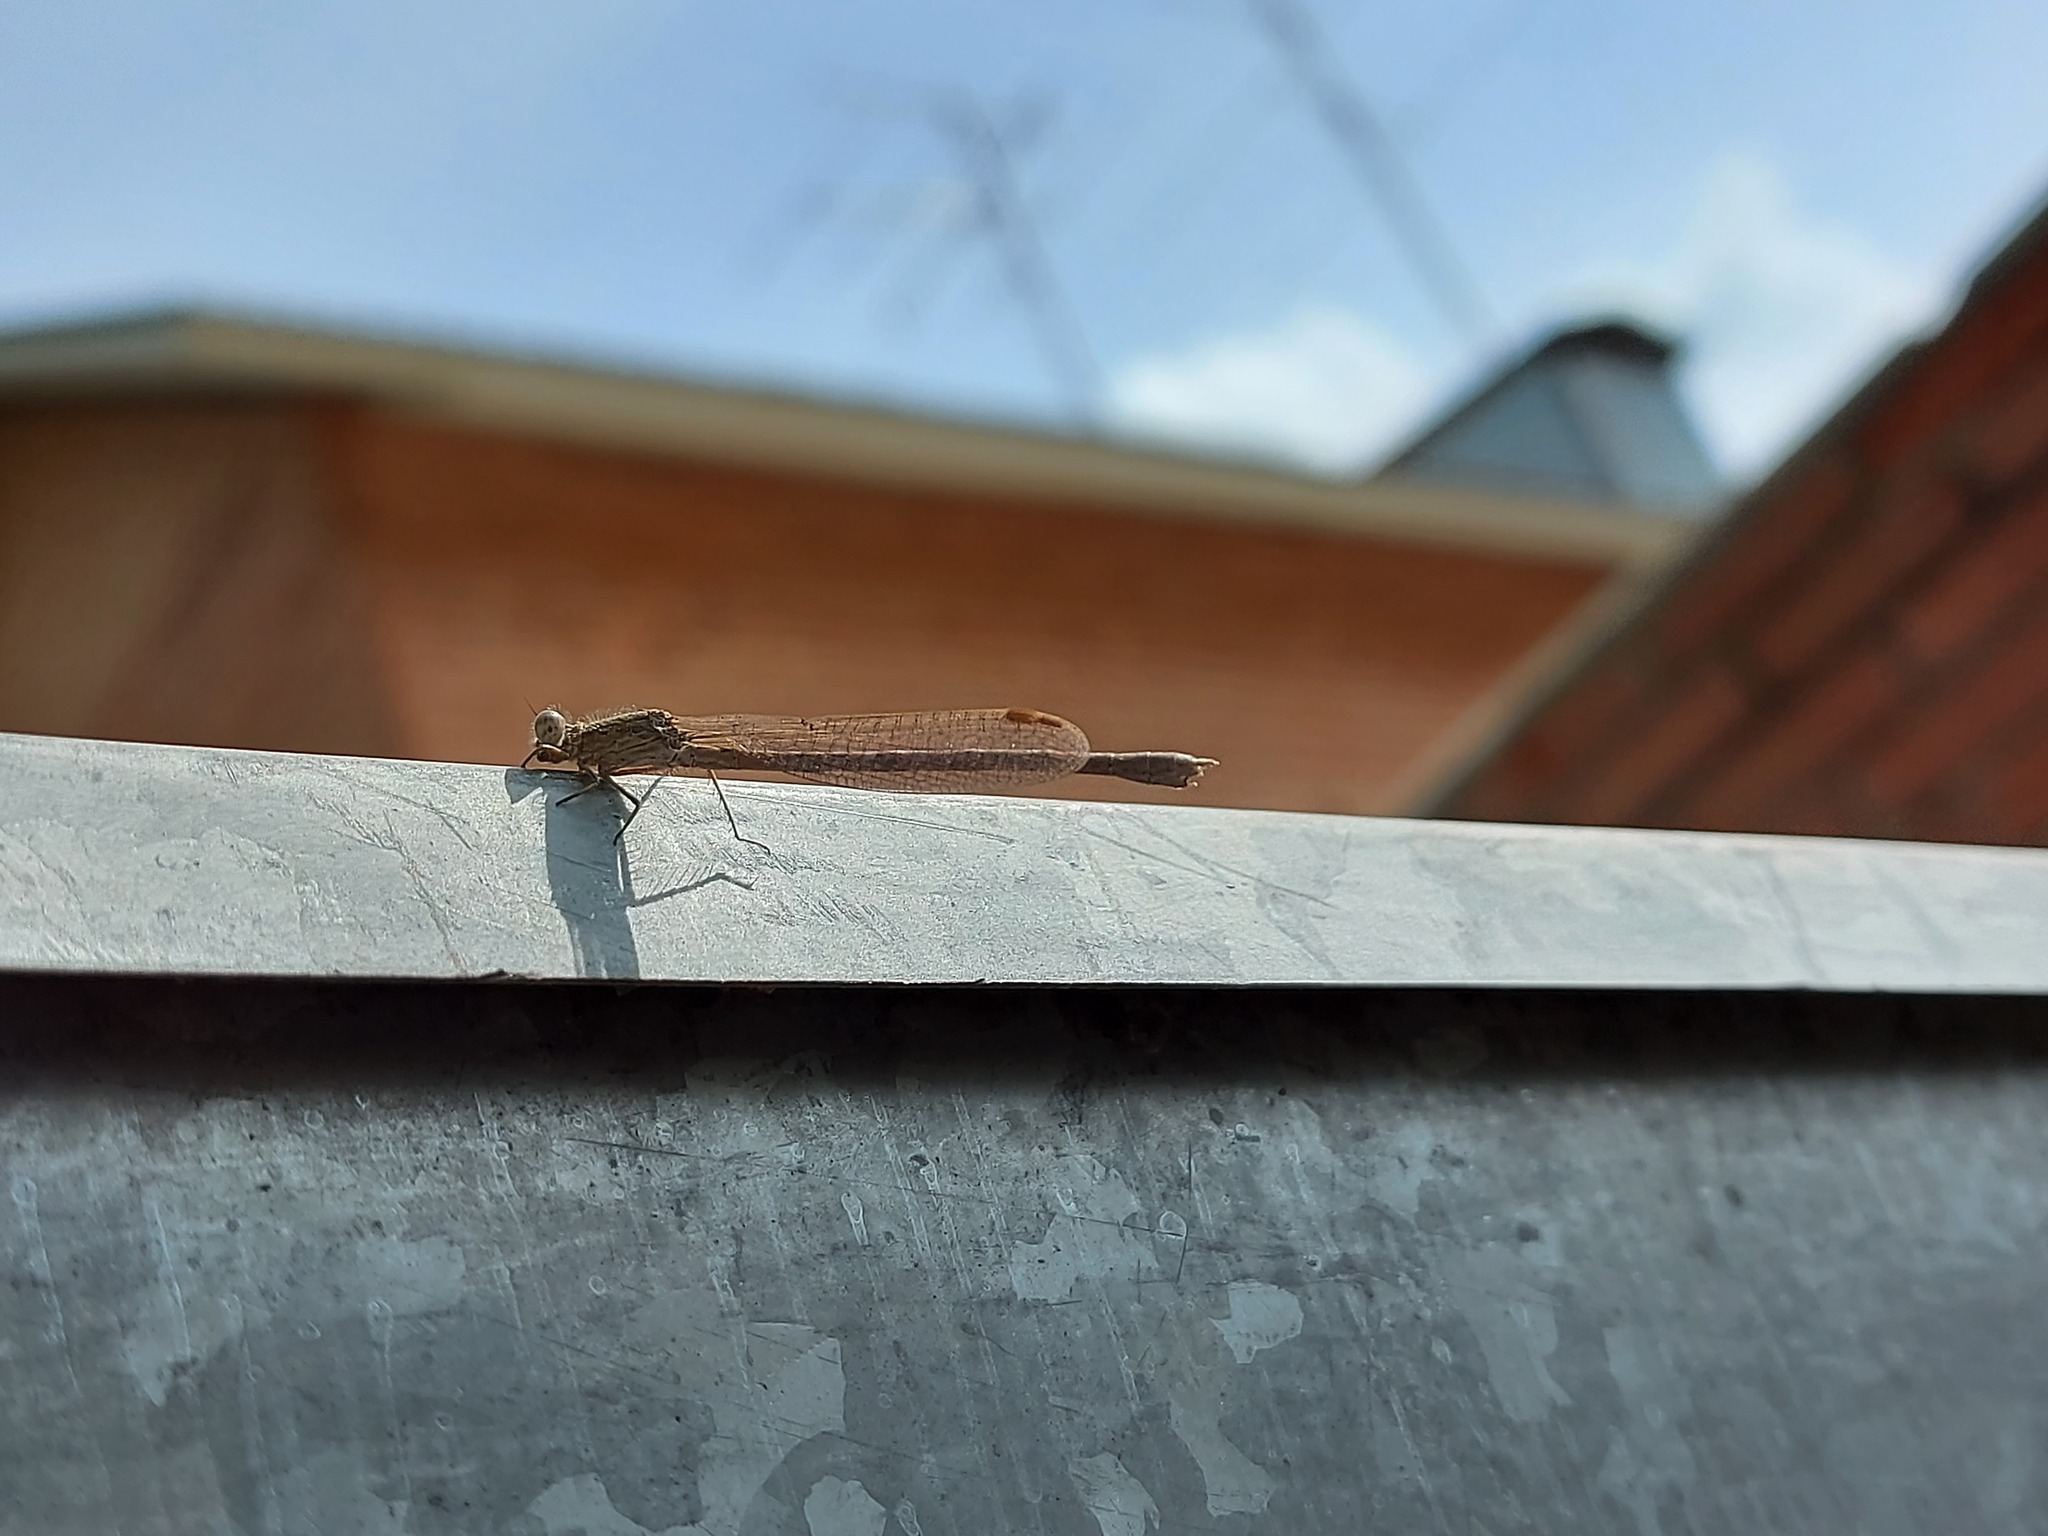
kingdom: Animalia
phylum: Arthropoda
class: Insecta
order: Odonata
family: Lestidae
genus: Sympecma
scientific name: Sympecma paedisca
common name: Siberian winter damsel
